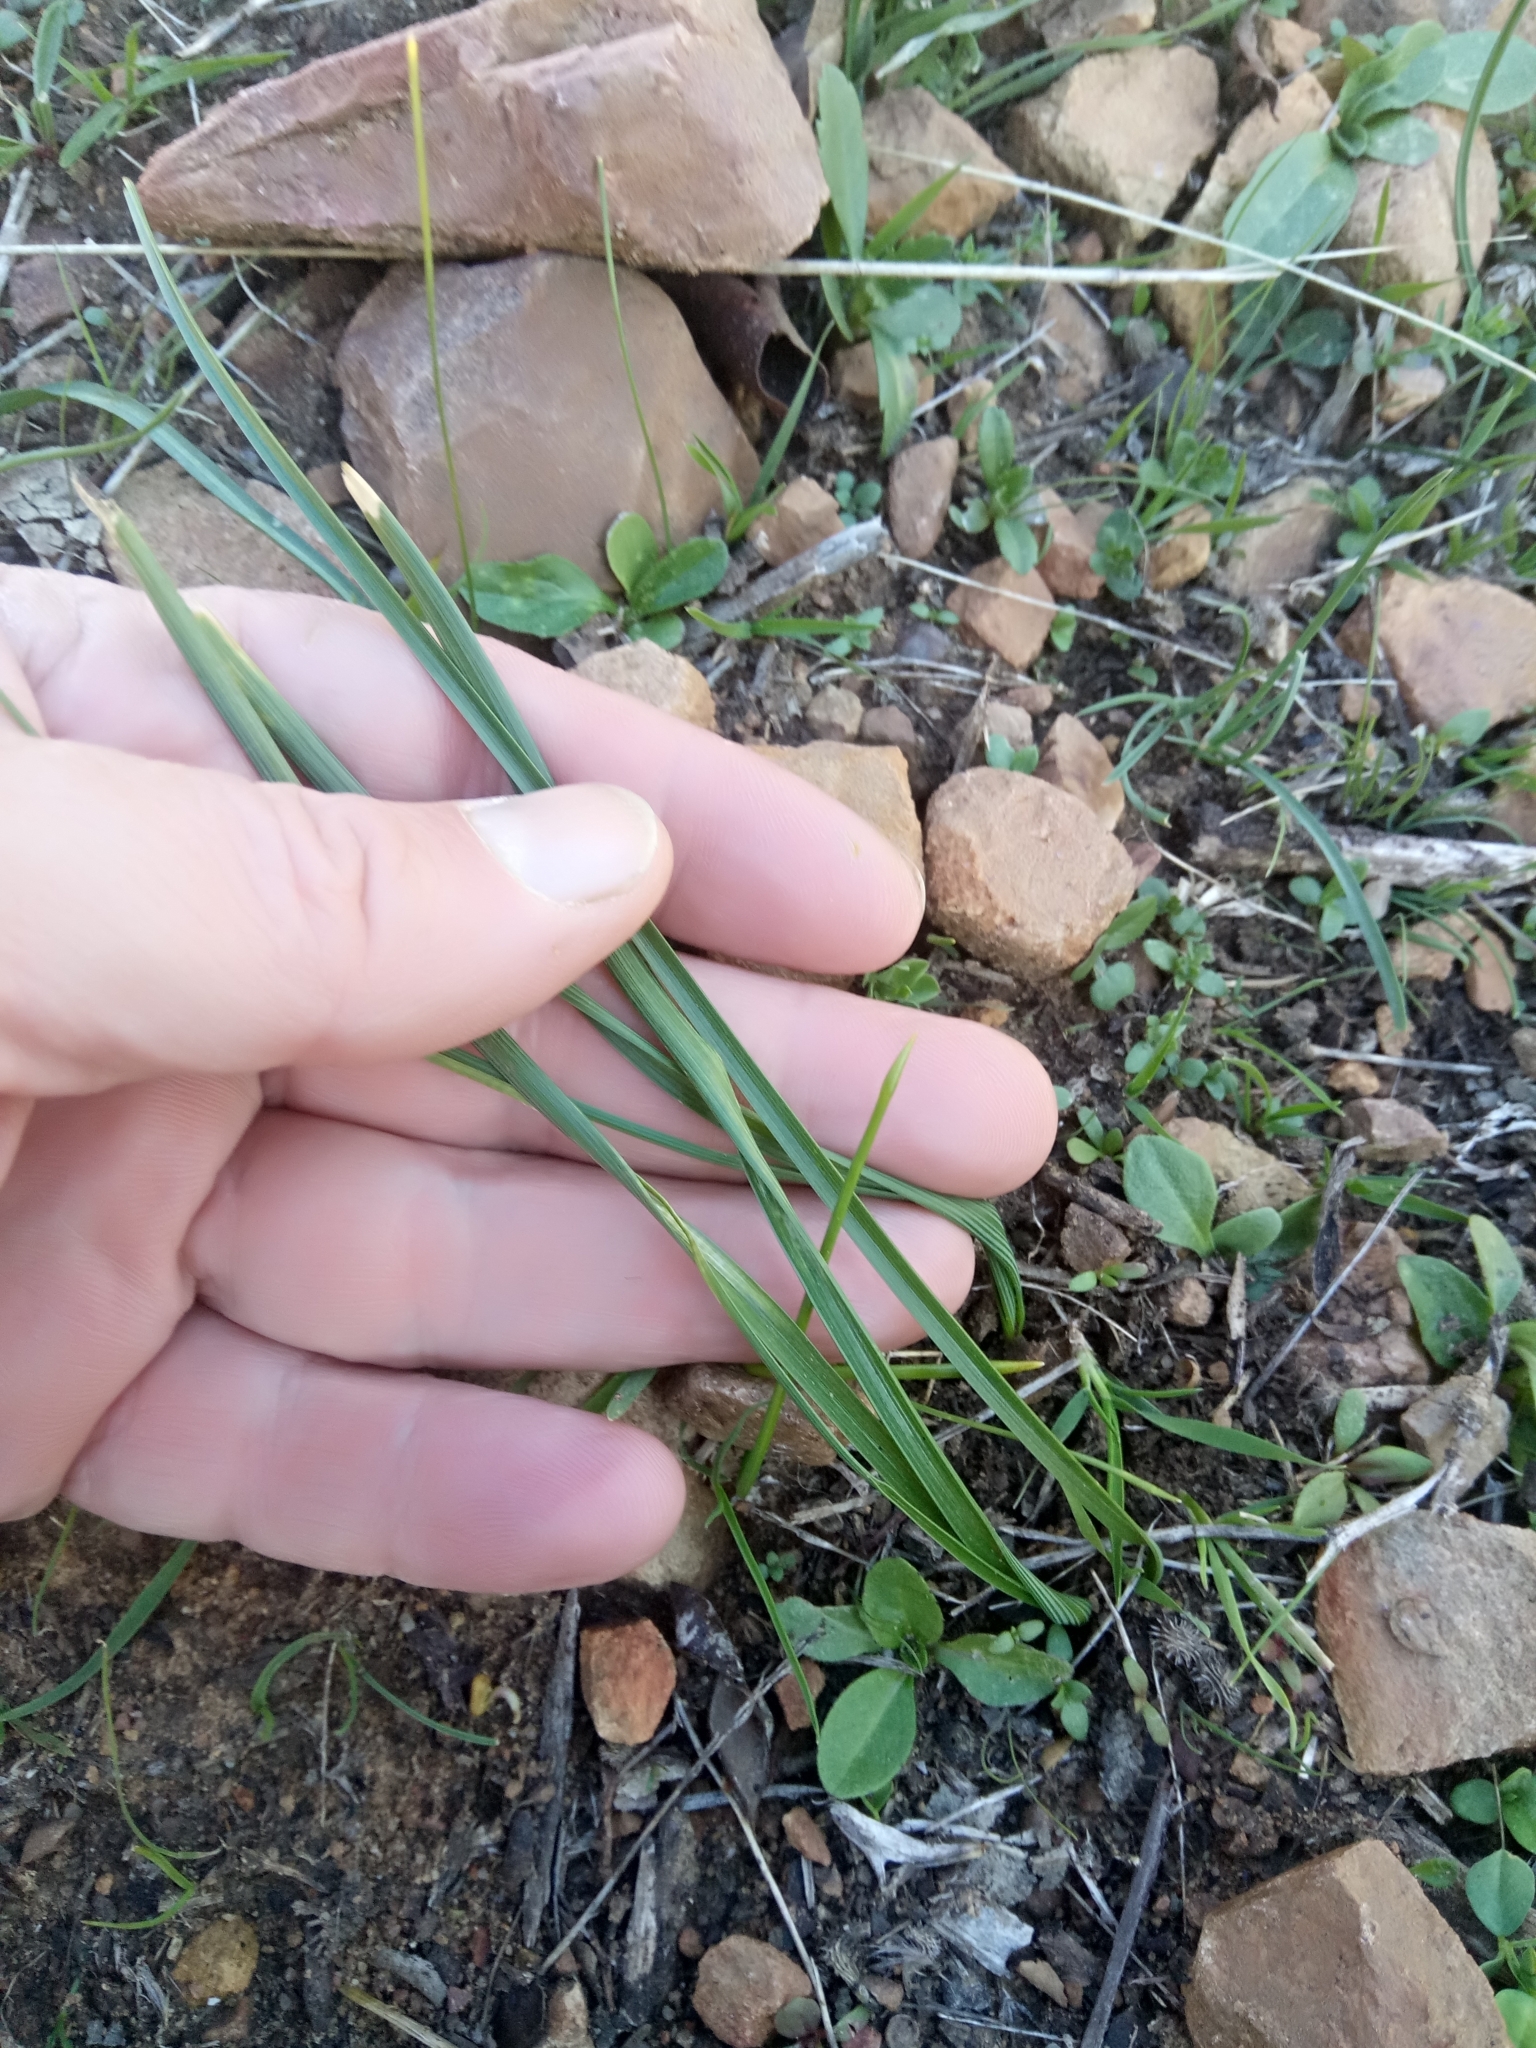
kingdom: Plantae
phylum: Tracheophyta
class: Liliopsida
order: Asparagales
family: Iridaceae
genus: Moraea
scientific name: Moraea sisyrinchium
